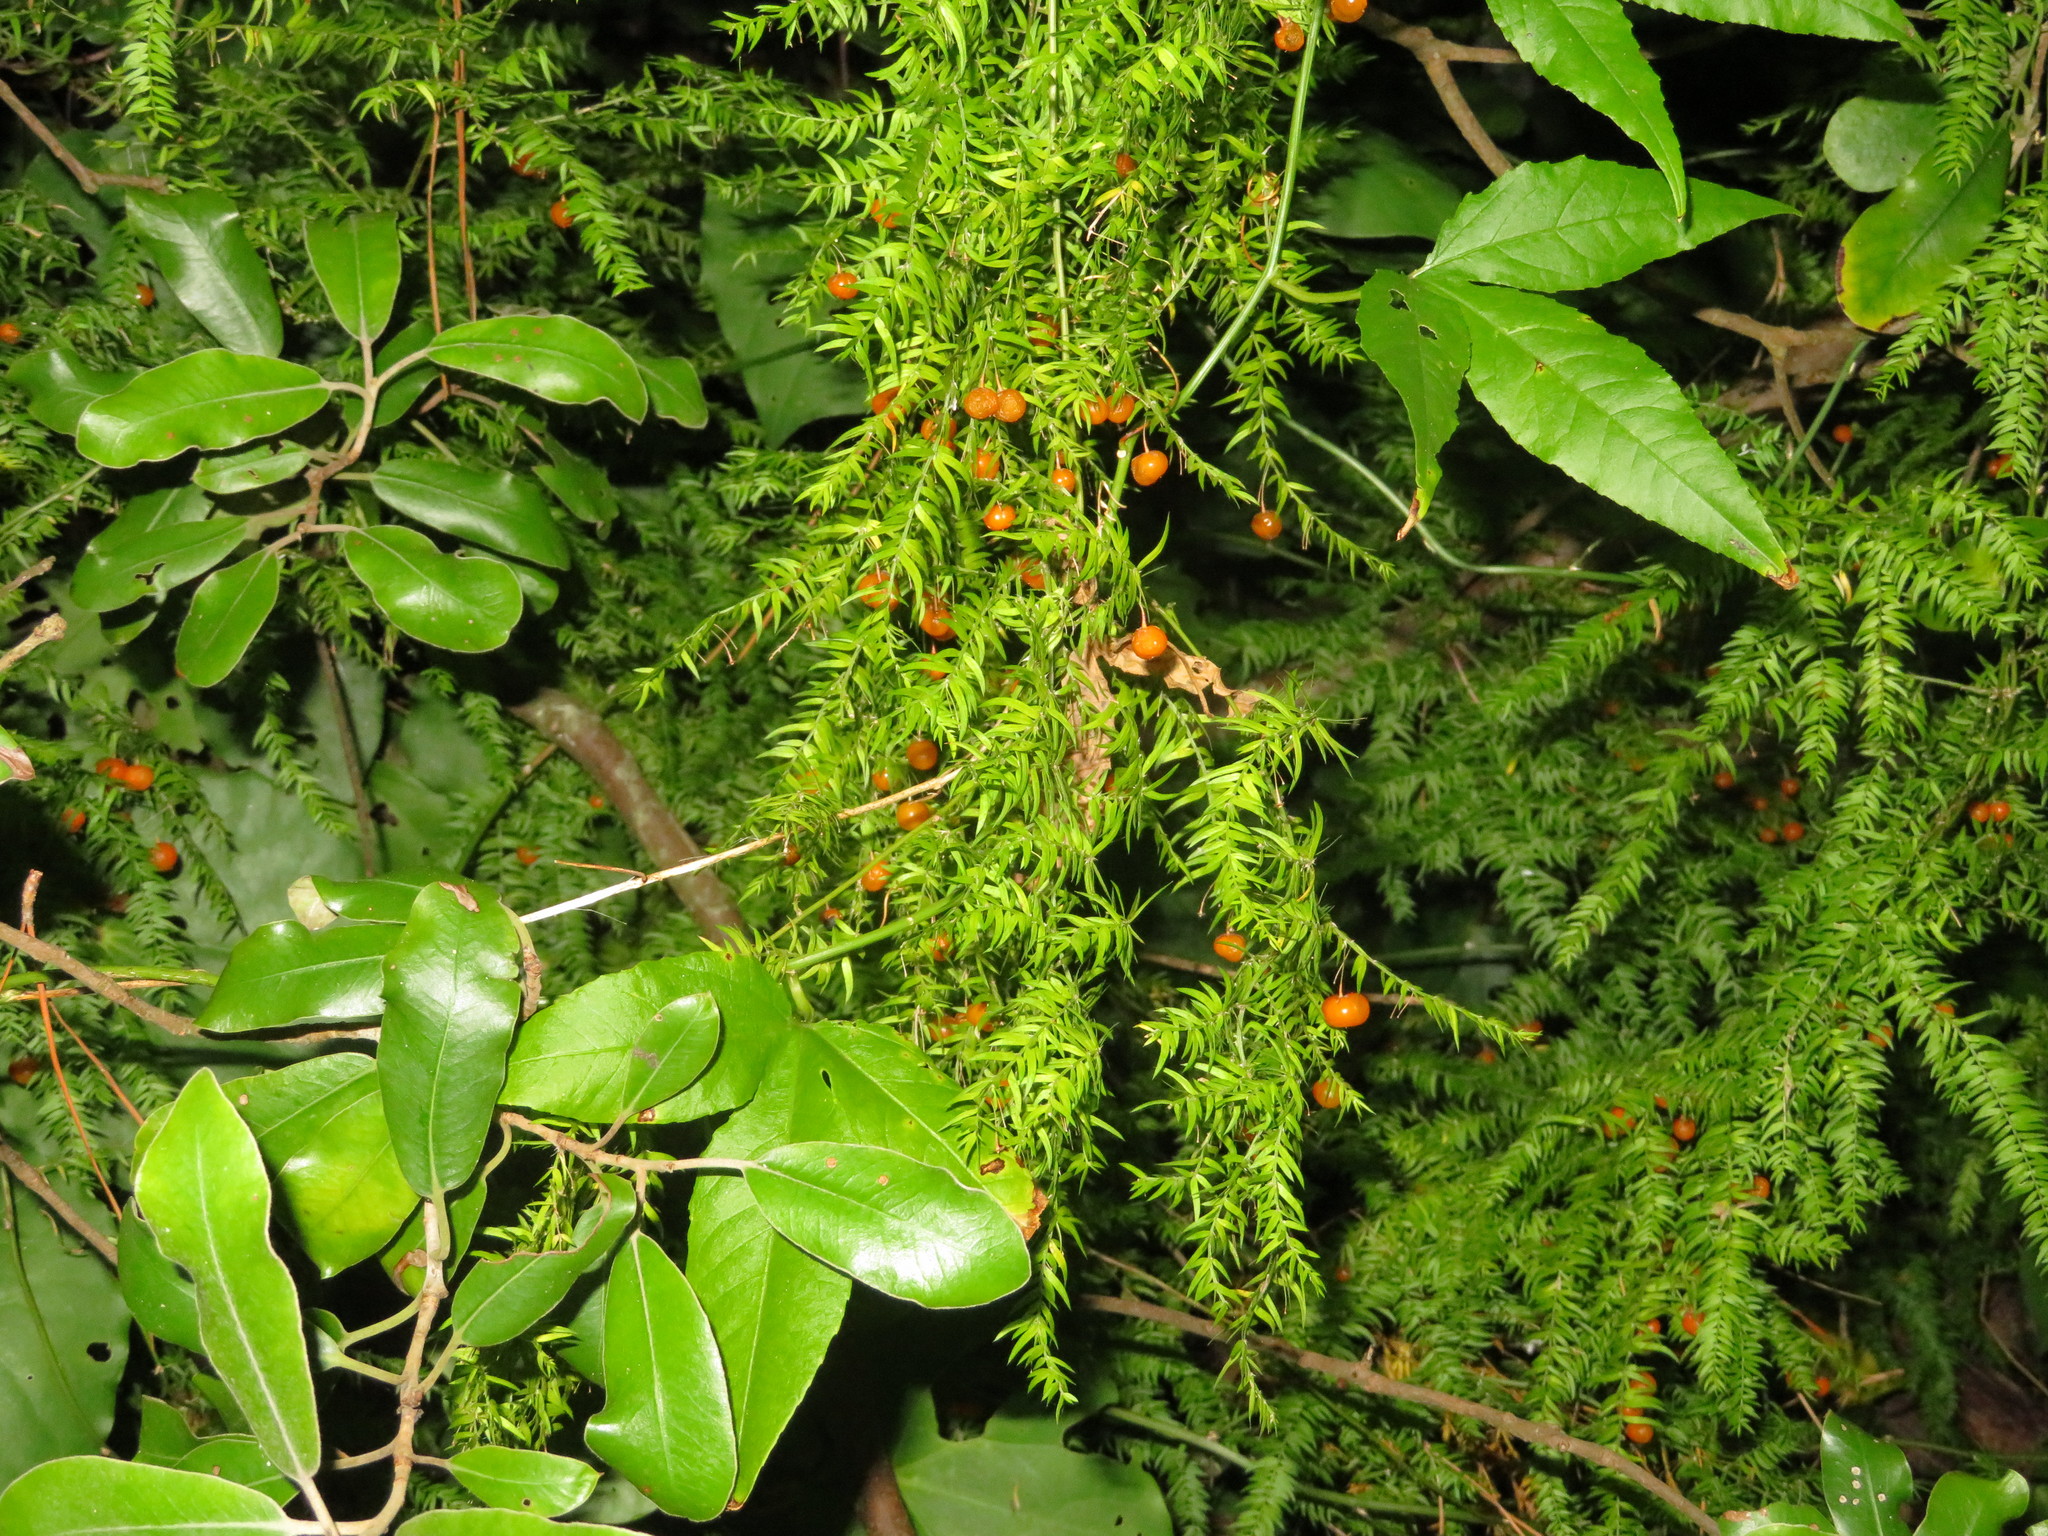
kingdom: Plantae
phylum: Tracheophyta
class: Liliopsida
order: Asparagales
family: Asparagaceae
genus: Asparagus
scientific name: Asparagus scandens
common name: Asparagus-fern
